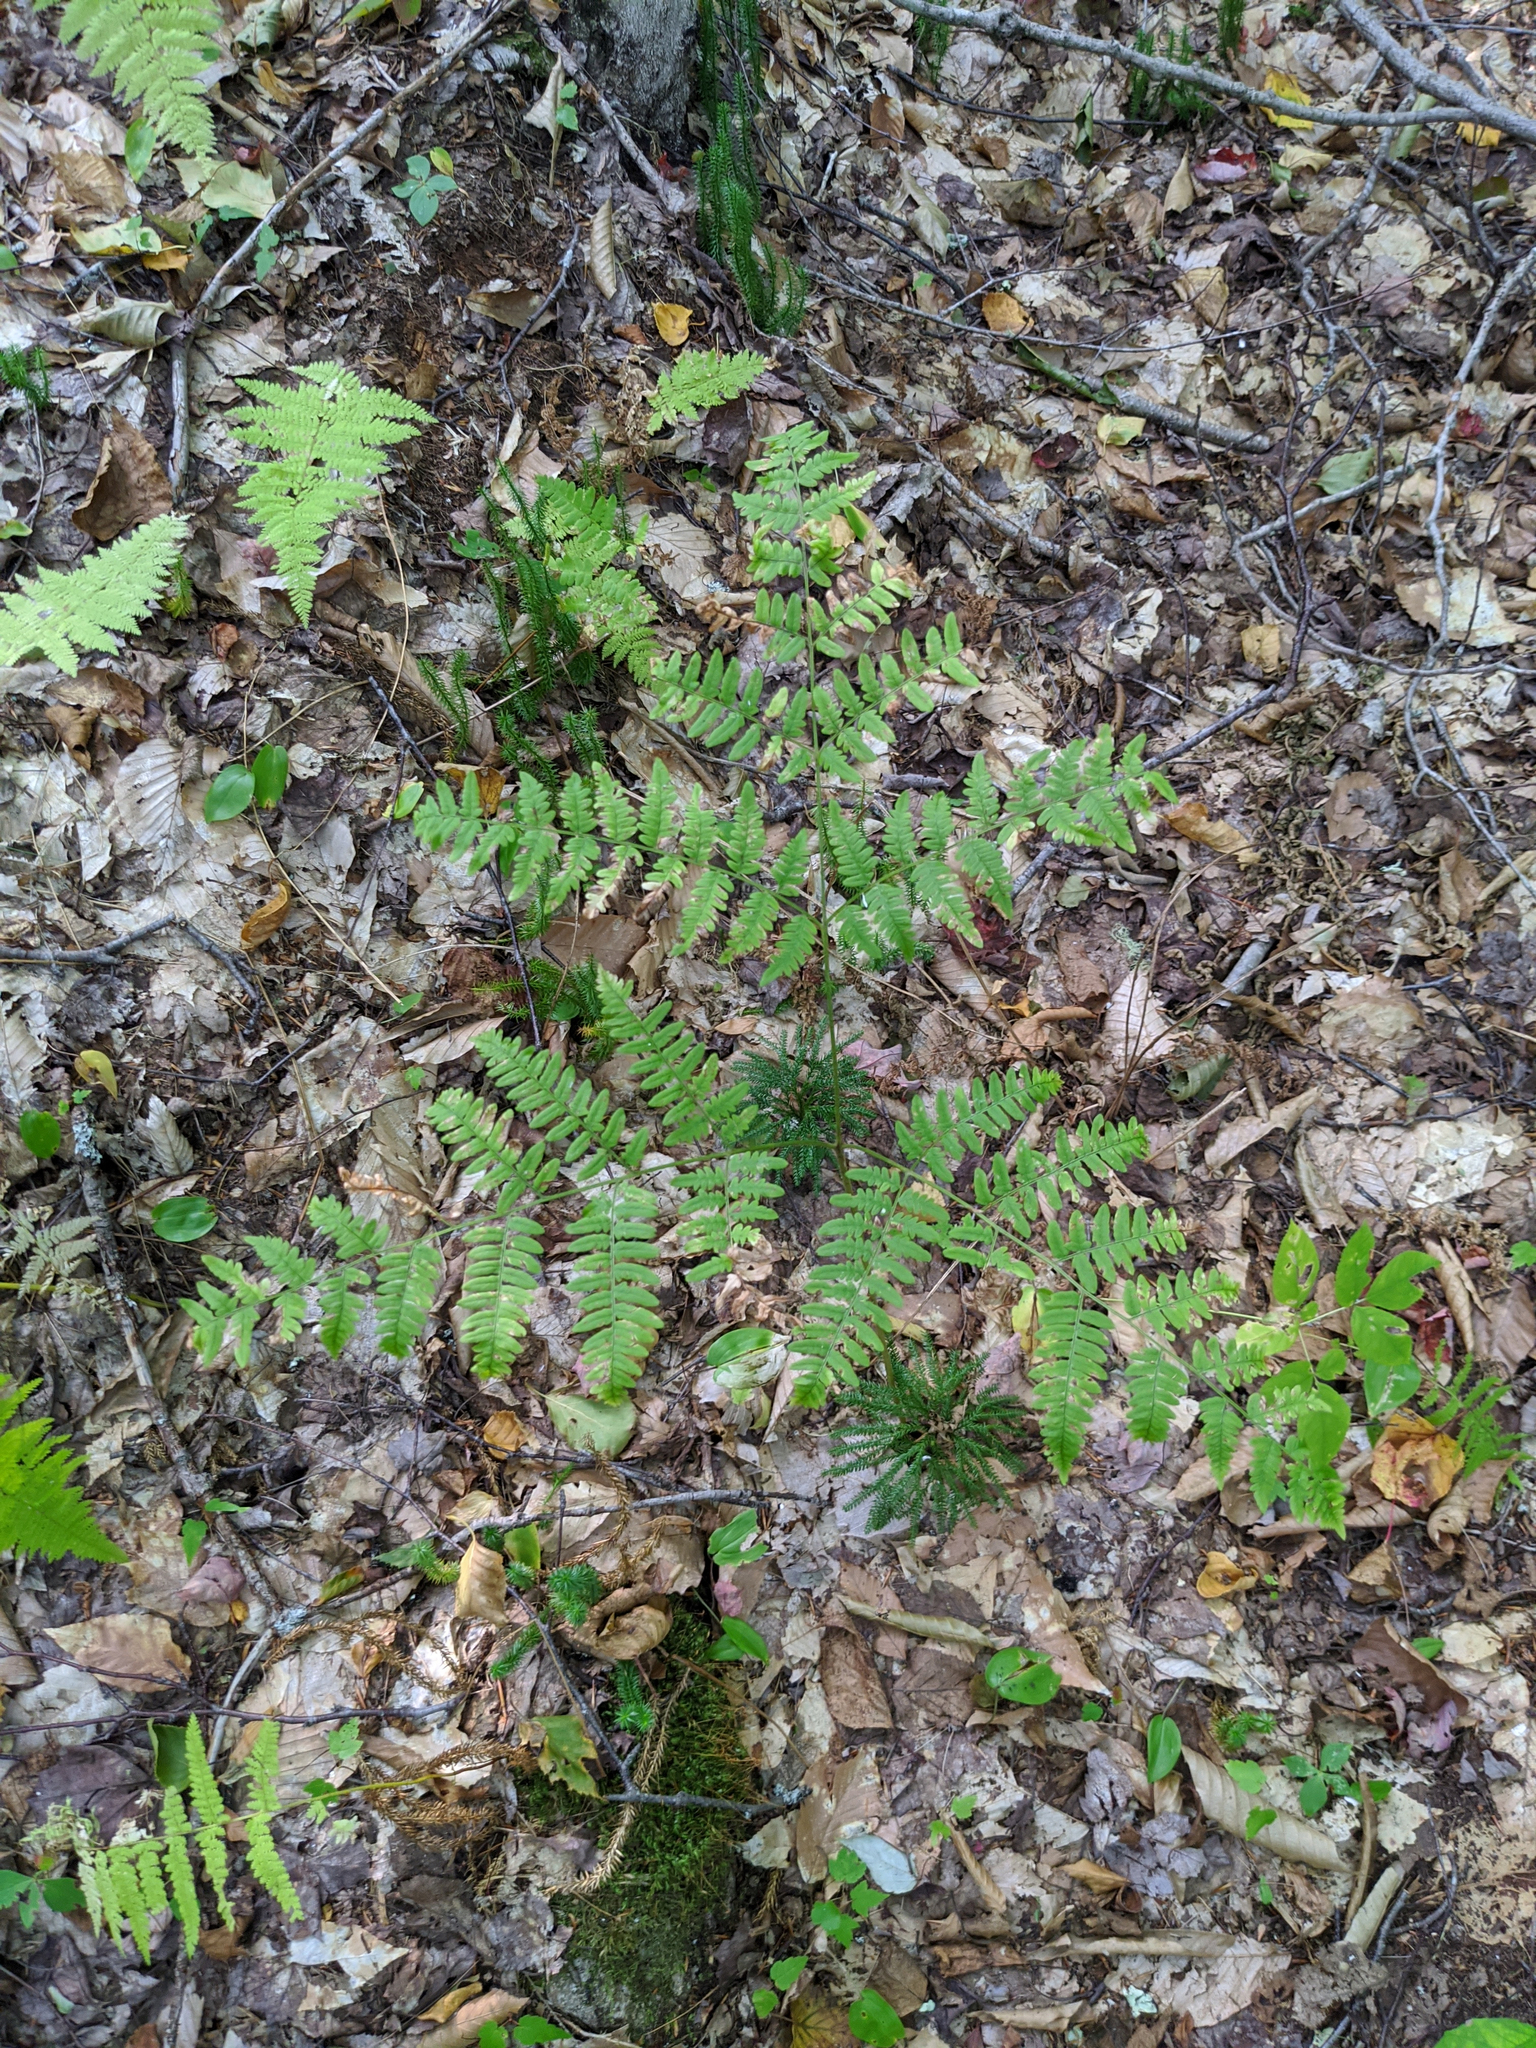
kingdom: Plantae
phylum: Tracheophyta
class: Polypodiopsida
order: Polypodiales
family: Dennstaedtiaceae
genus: Pteridium
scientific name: Pteridium aquilinum
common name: Bracken
